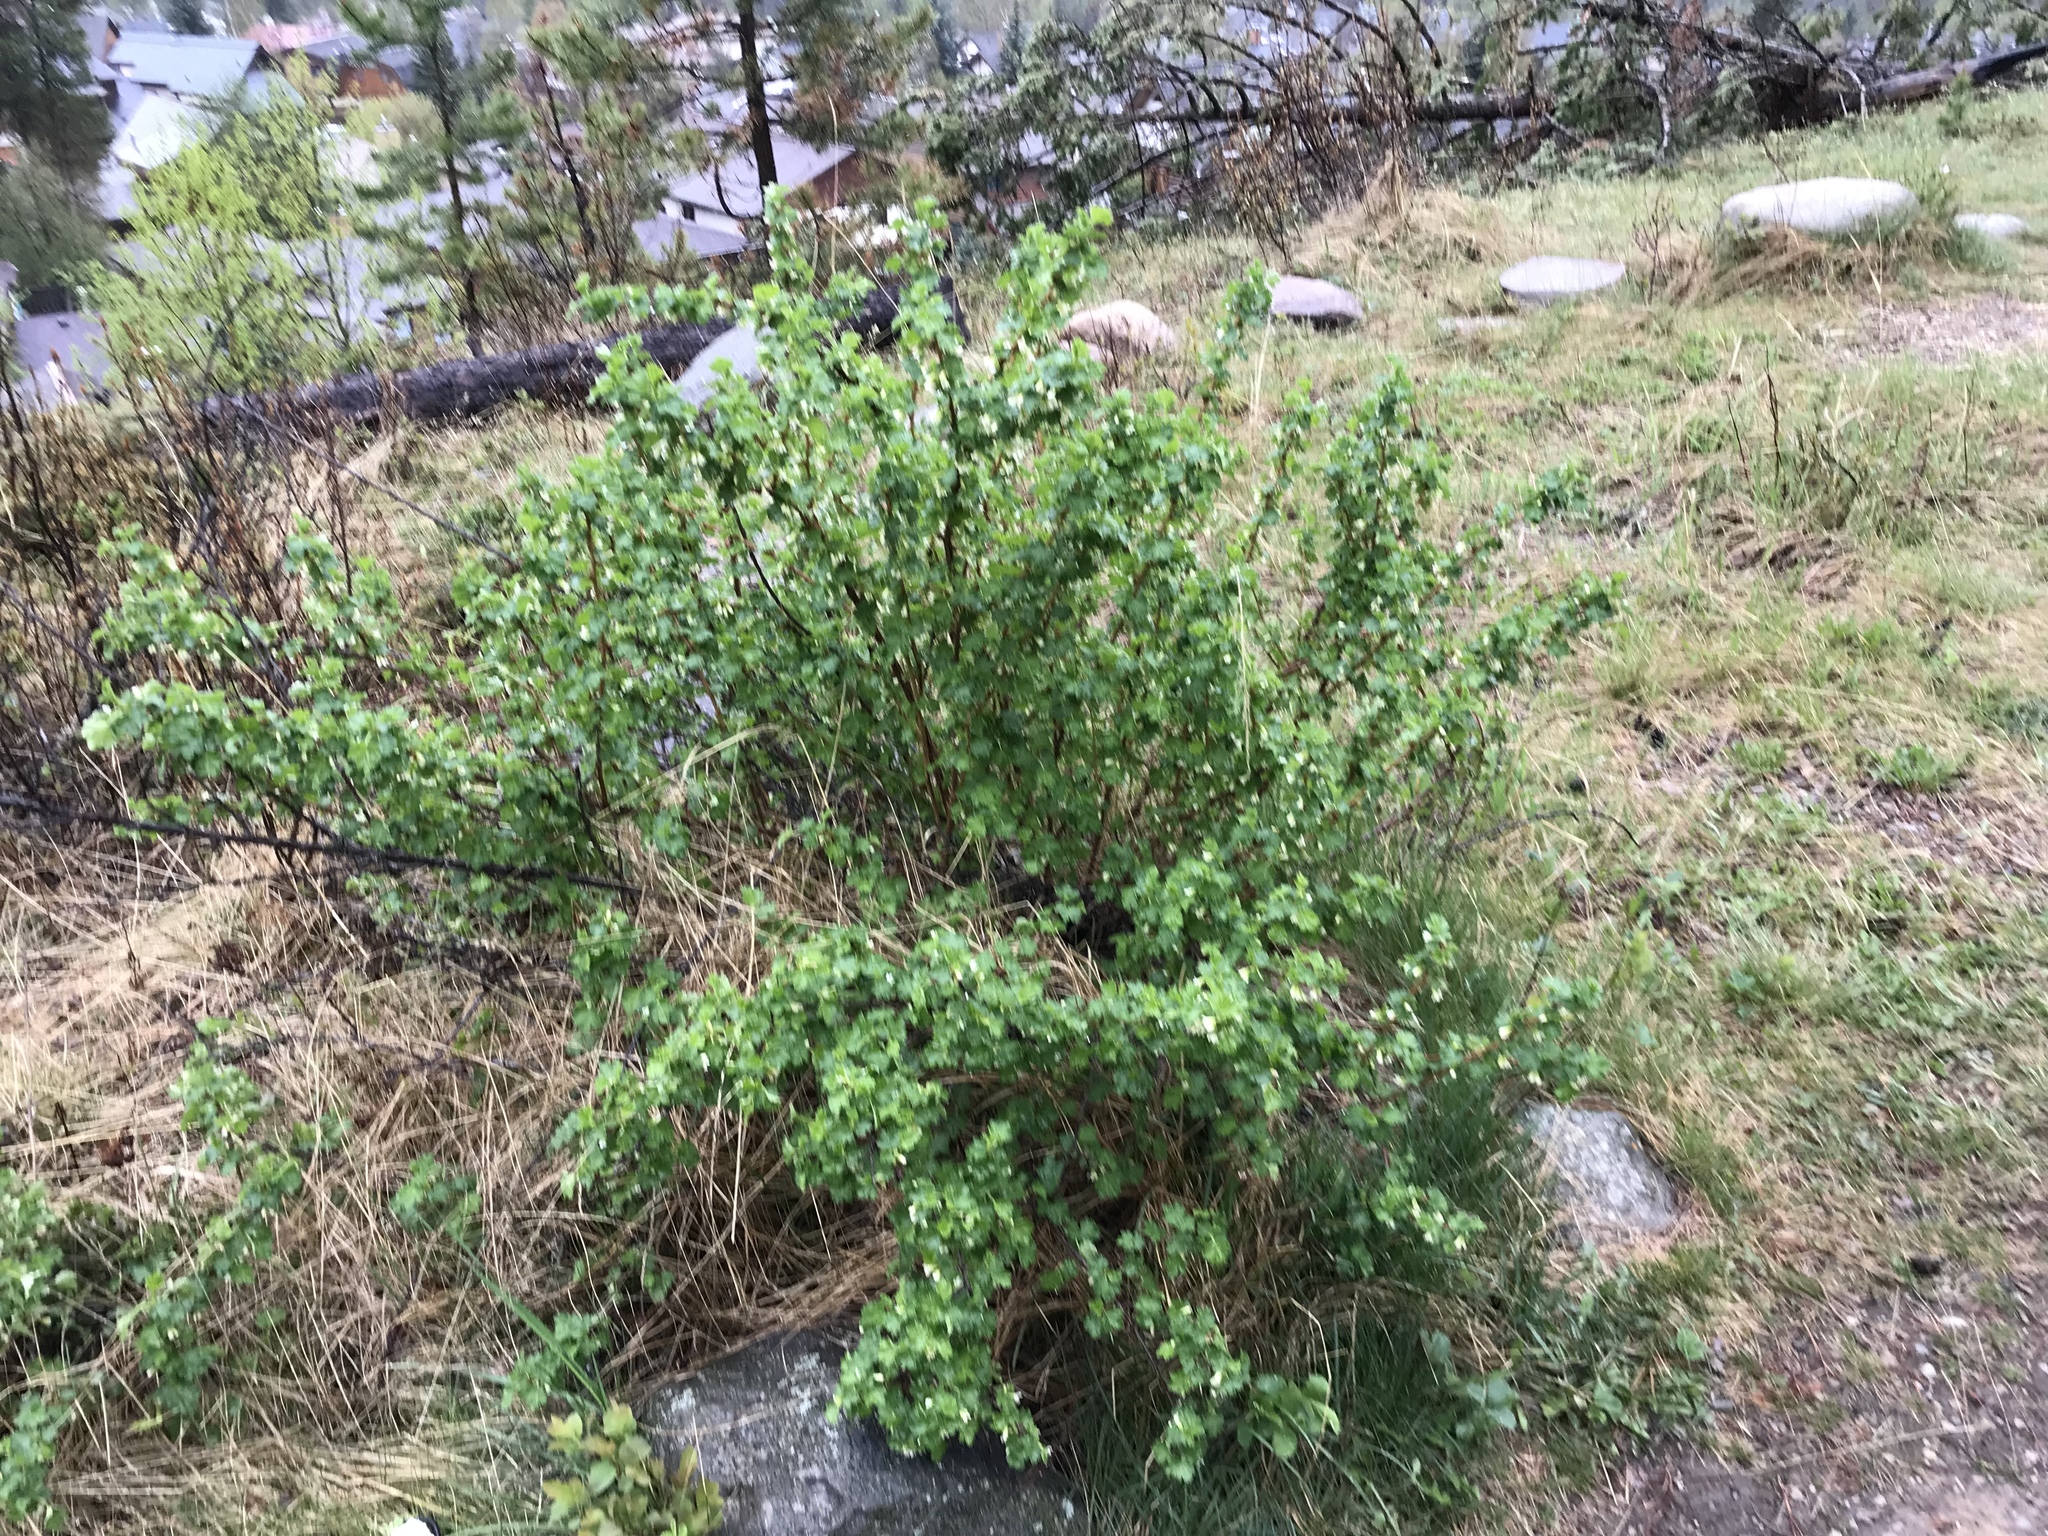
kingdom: Plantae
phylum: Tracheophyta
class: Magnoliopsida
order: Saxifragales
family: Grossulariaceae
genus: Ribes
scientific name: Ribes oxyacanthoides
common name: Northern gooseberry
